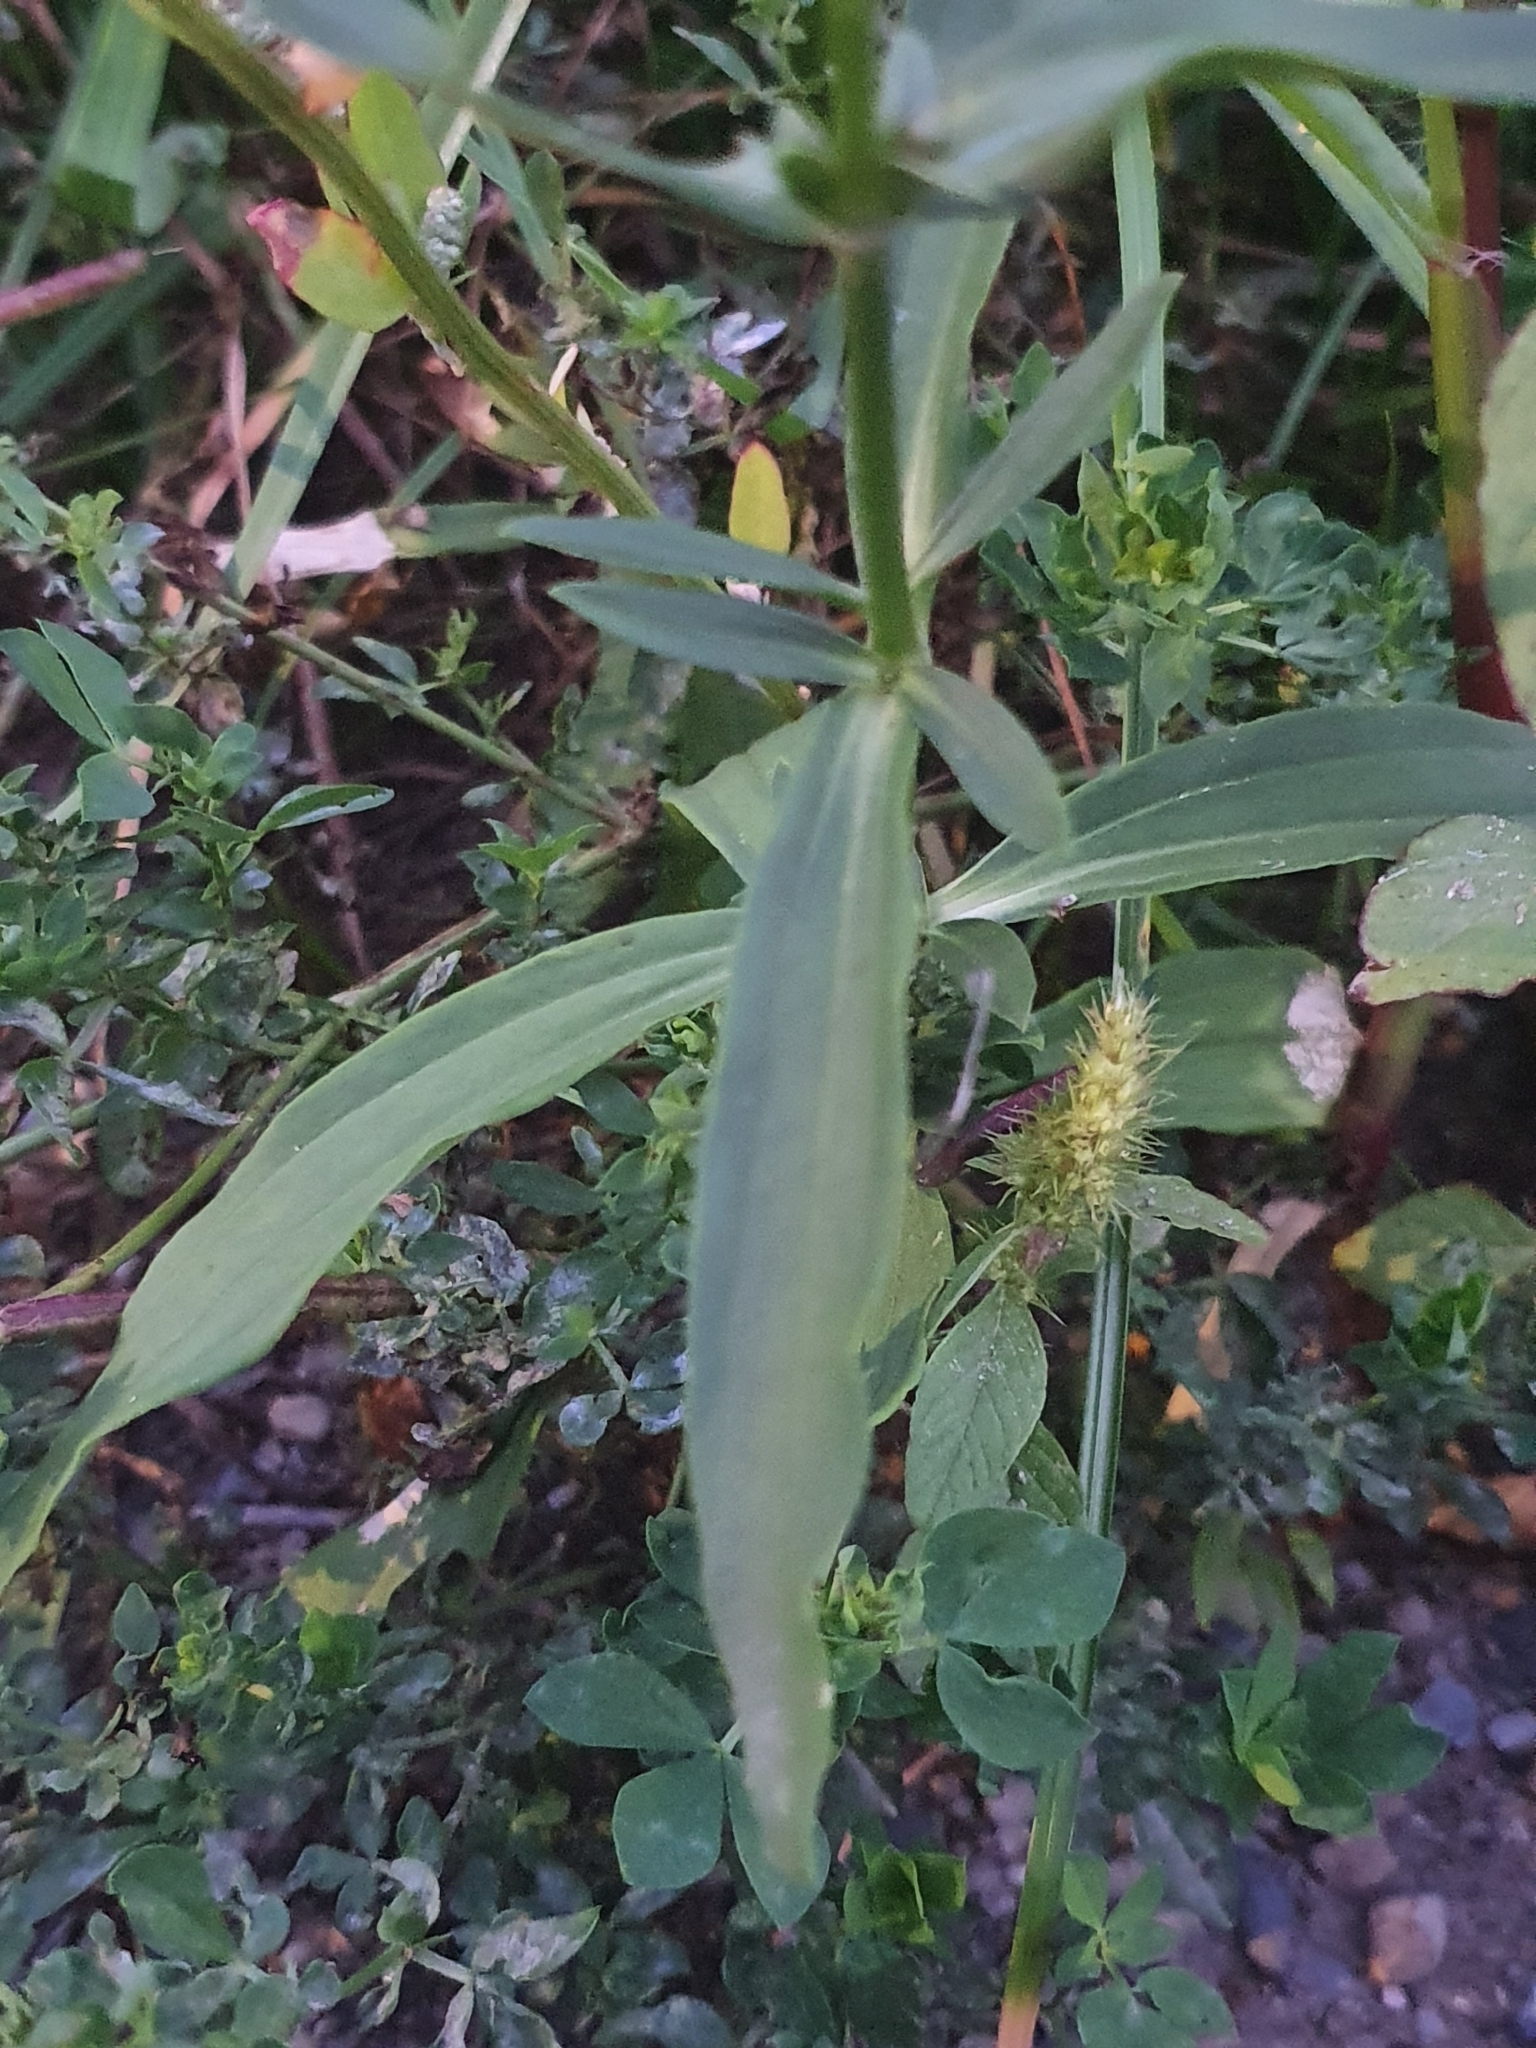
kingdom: Plantae
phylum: Tracheophyta
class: Magnoliopsida
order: Caryophyllales
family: Caryophyllaceae
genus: Saponaria
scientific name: Saponaria officinalis
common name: Soapwort
